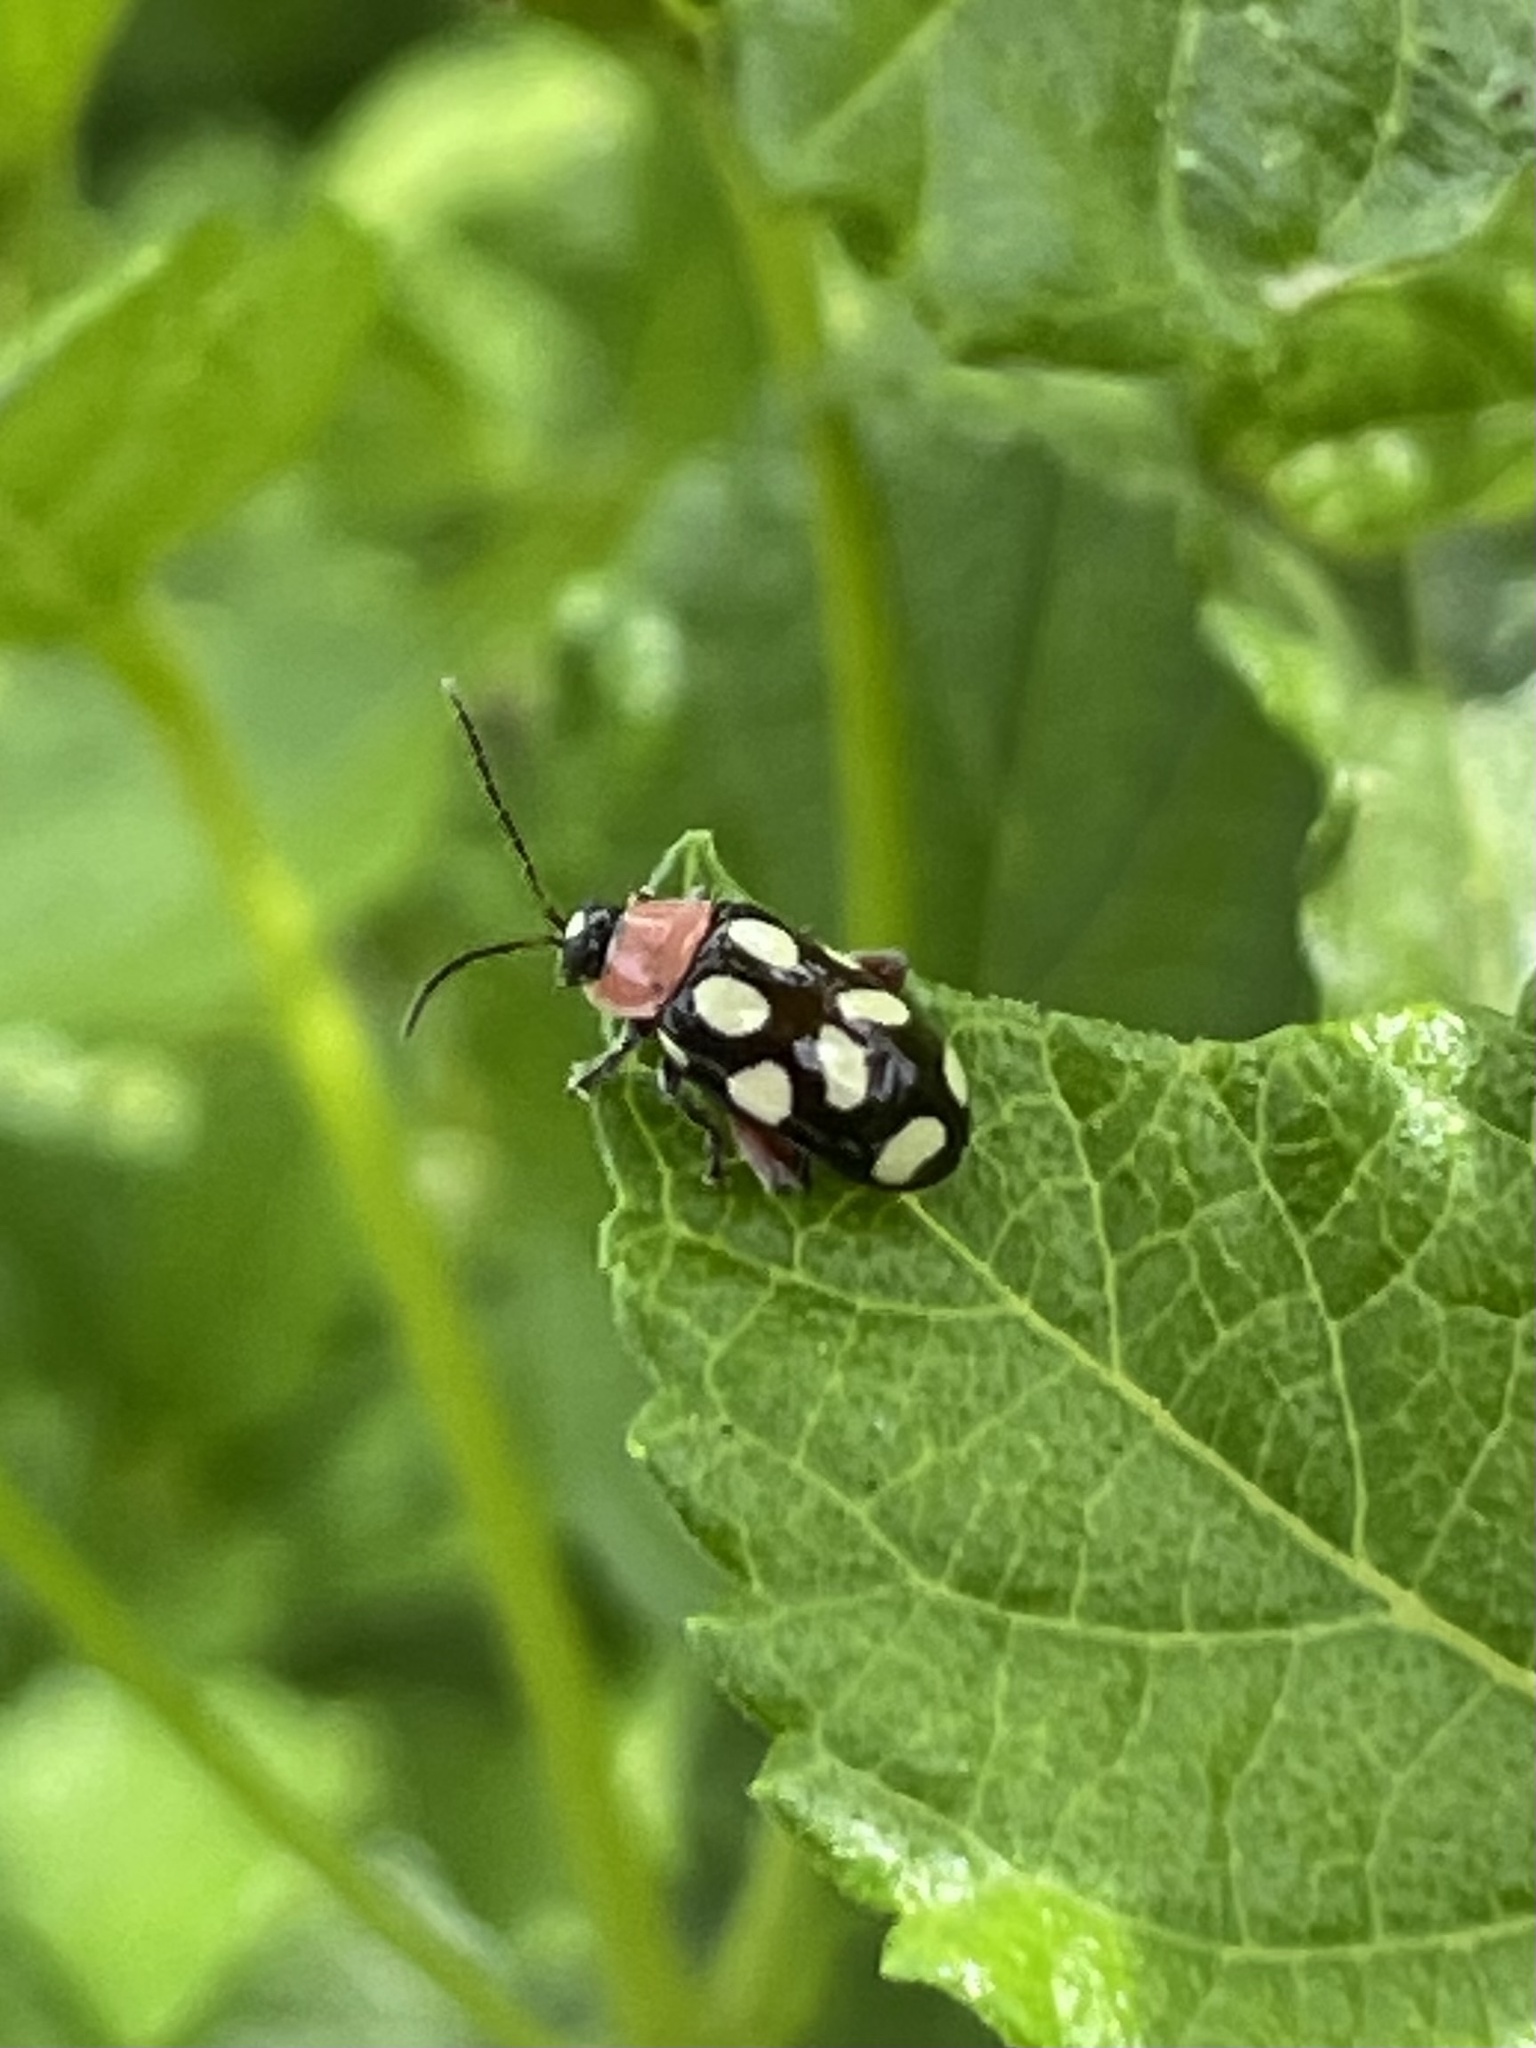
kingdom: Animalia
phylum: Arthropoda
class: Insecta
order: Coleoptera
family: Chrysomelidae
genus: Omophoita
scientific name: Omophoita cyanipennis
